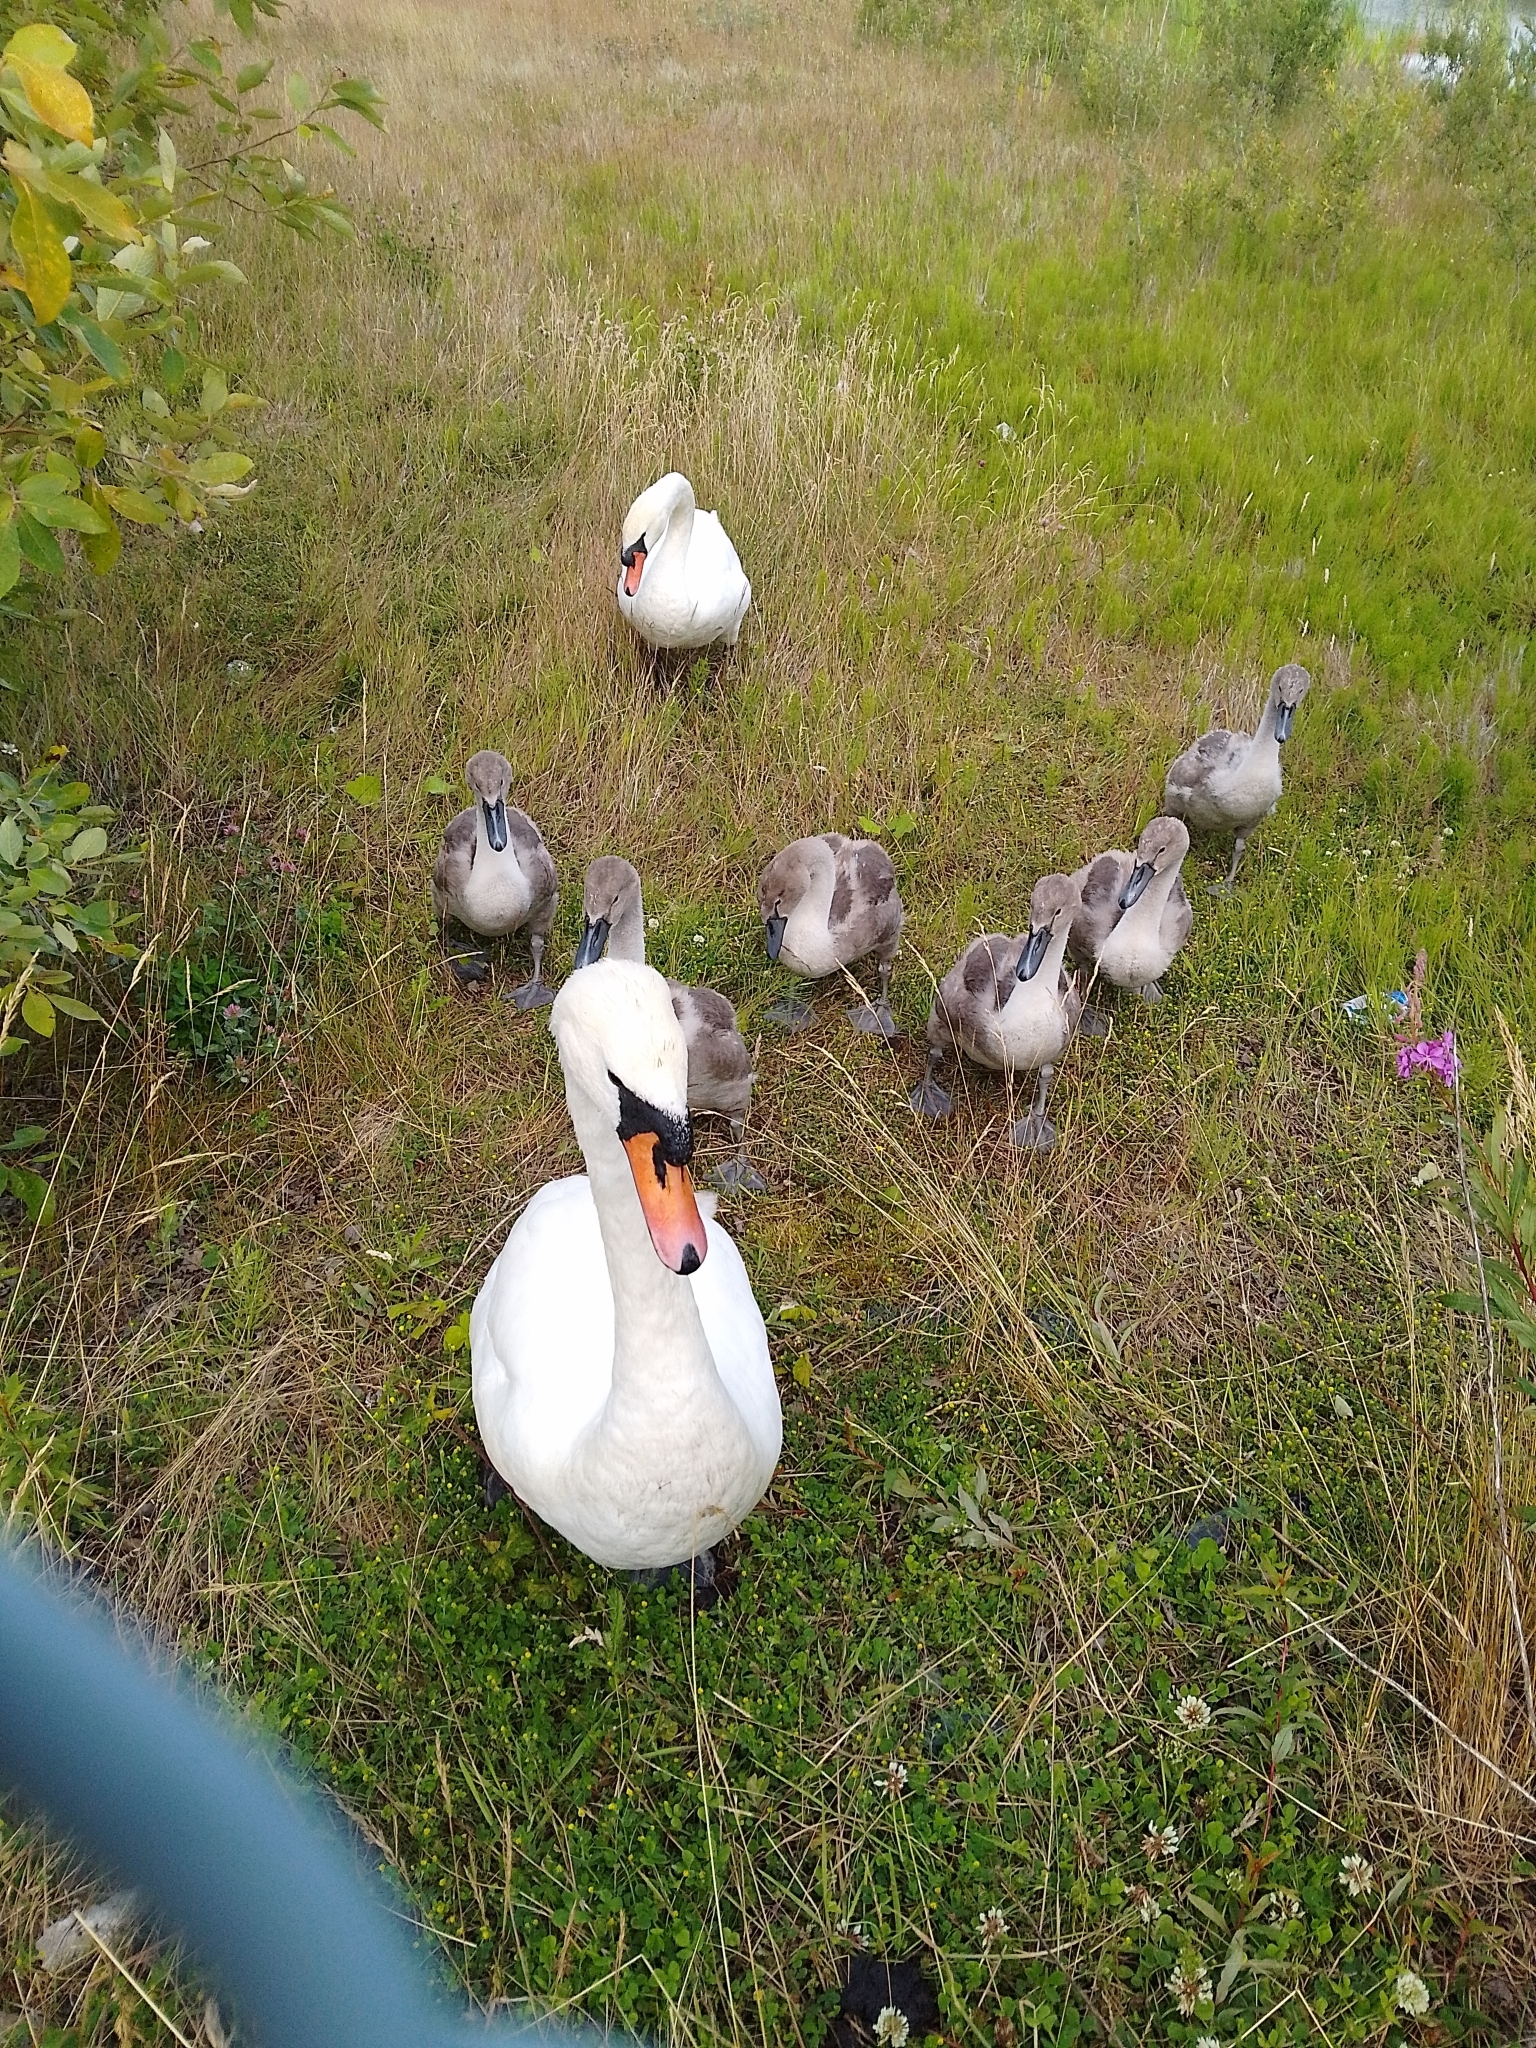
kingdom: Animalia
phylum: Chordata
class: Aves
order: Anseriformes
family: Anatidae
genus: Cygnus
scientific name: Cygnus olor
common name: Mute swan
